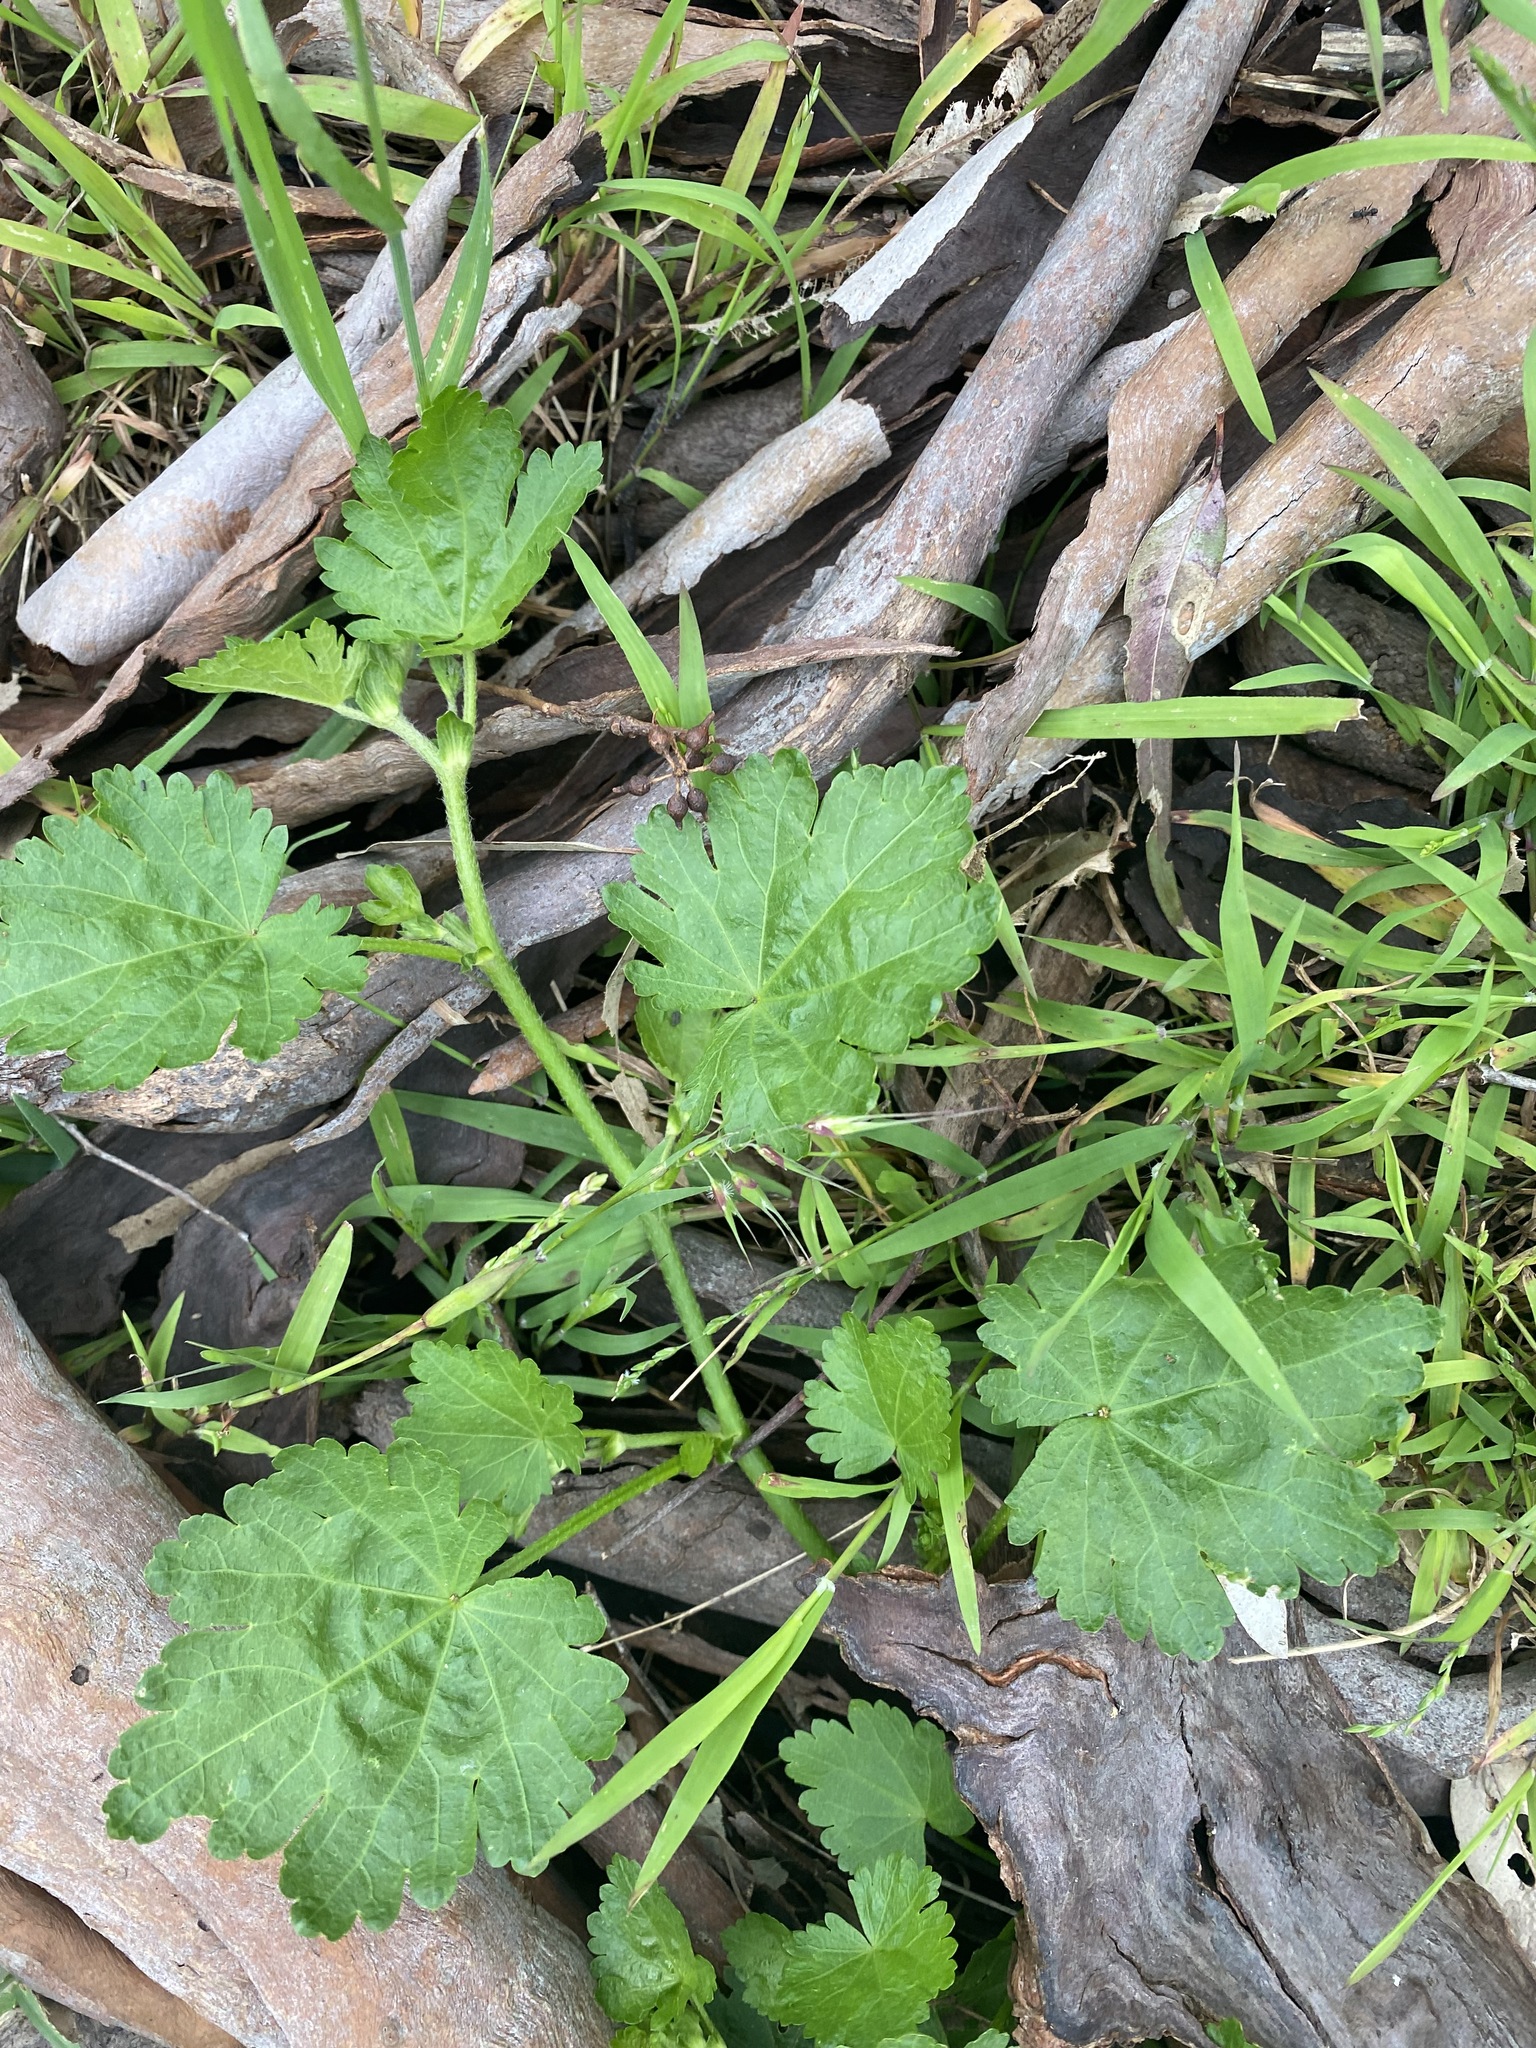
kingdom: Plantae
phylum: Tracheophyta
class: Magnoliopsida
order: Malvales
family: Malvaceae
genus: Modiola
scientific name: Modiola caroliniana
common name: Carolina bristlemallow
